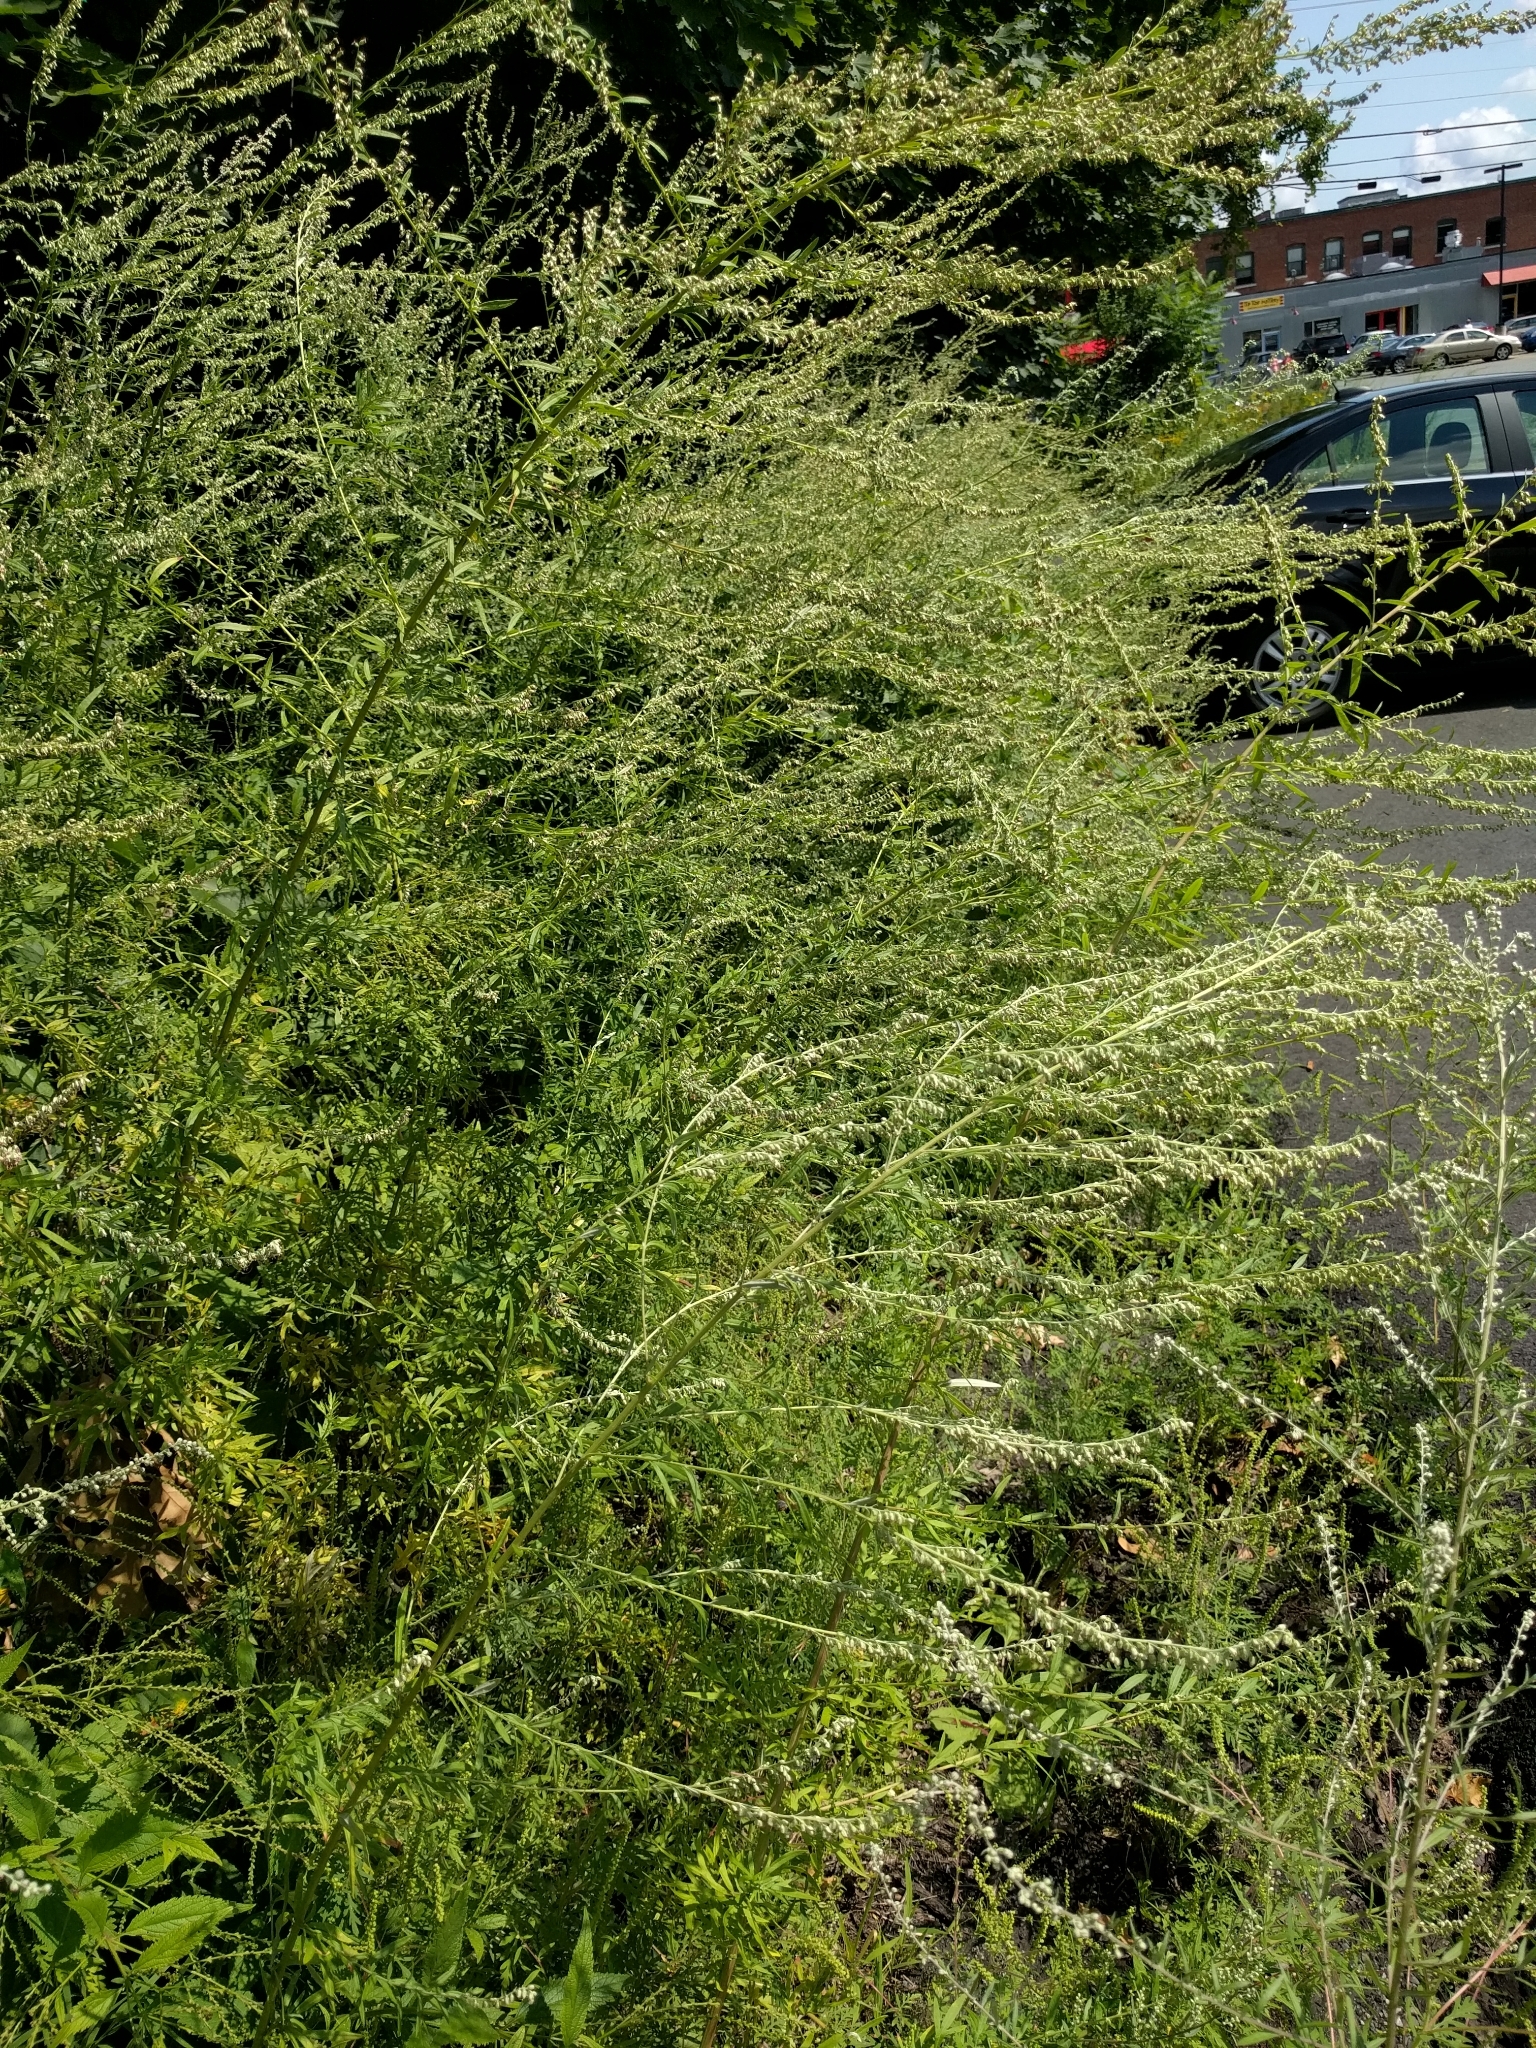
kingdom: Plantae
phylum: Tracheophyta
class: Magnoliopsida
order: Asterales
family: Asteraceae
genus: Artemisia
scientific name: Artemisia vulgaris
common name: Mugwort
